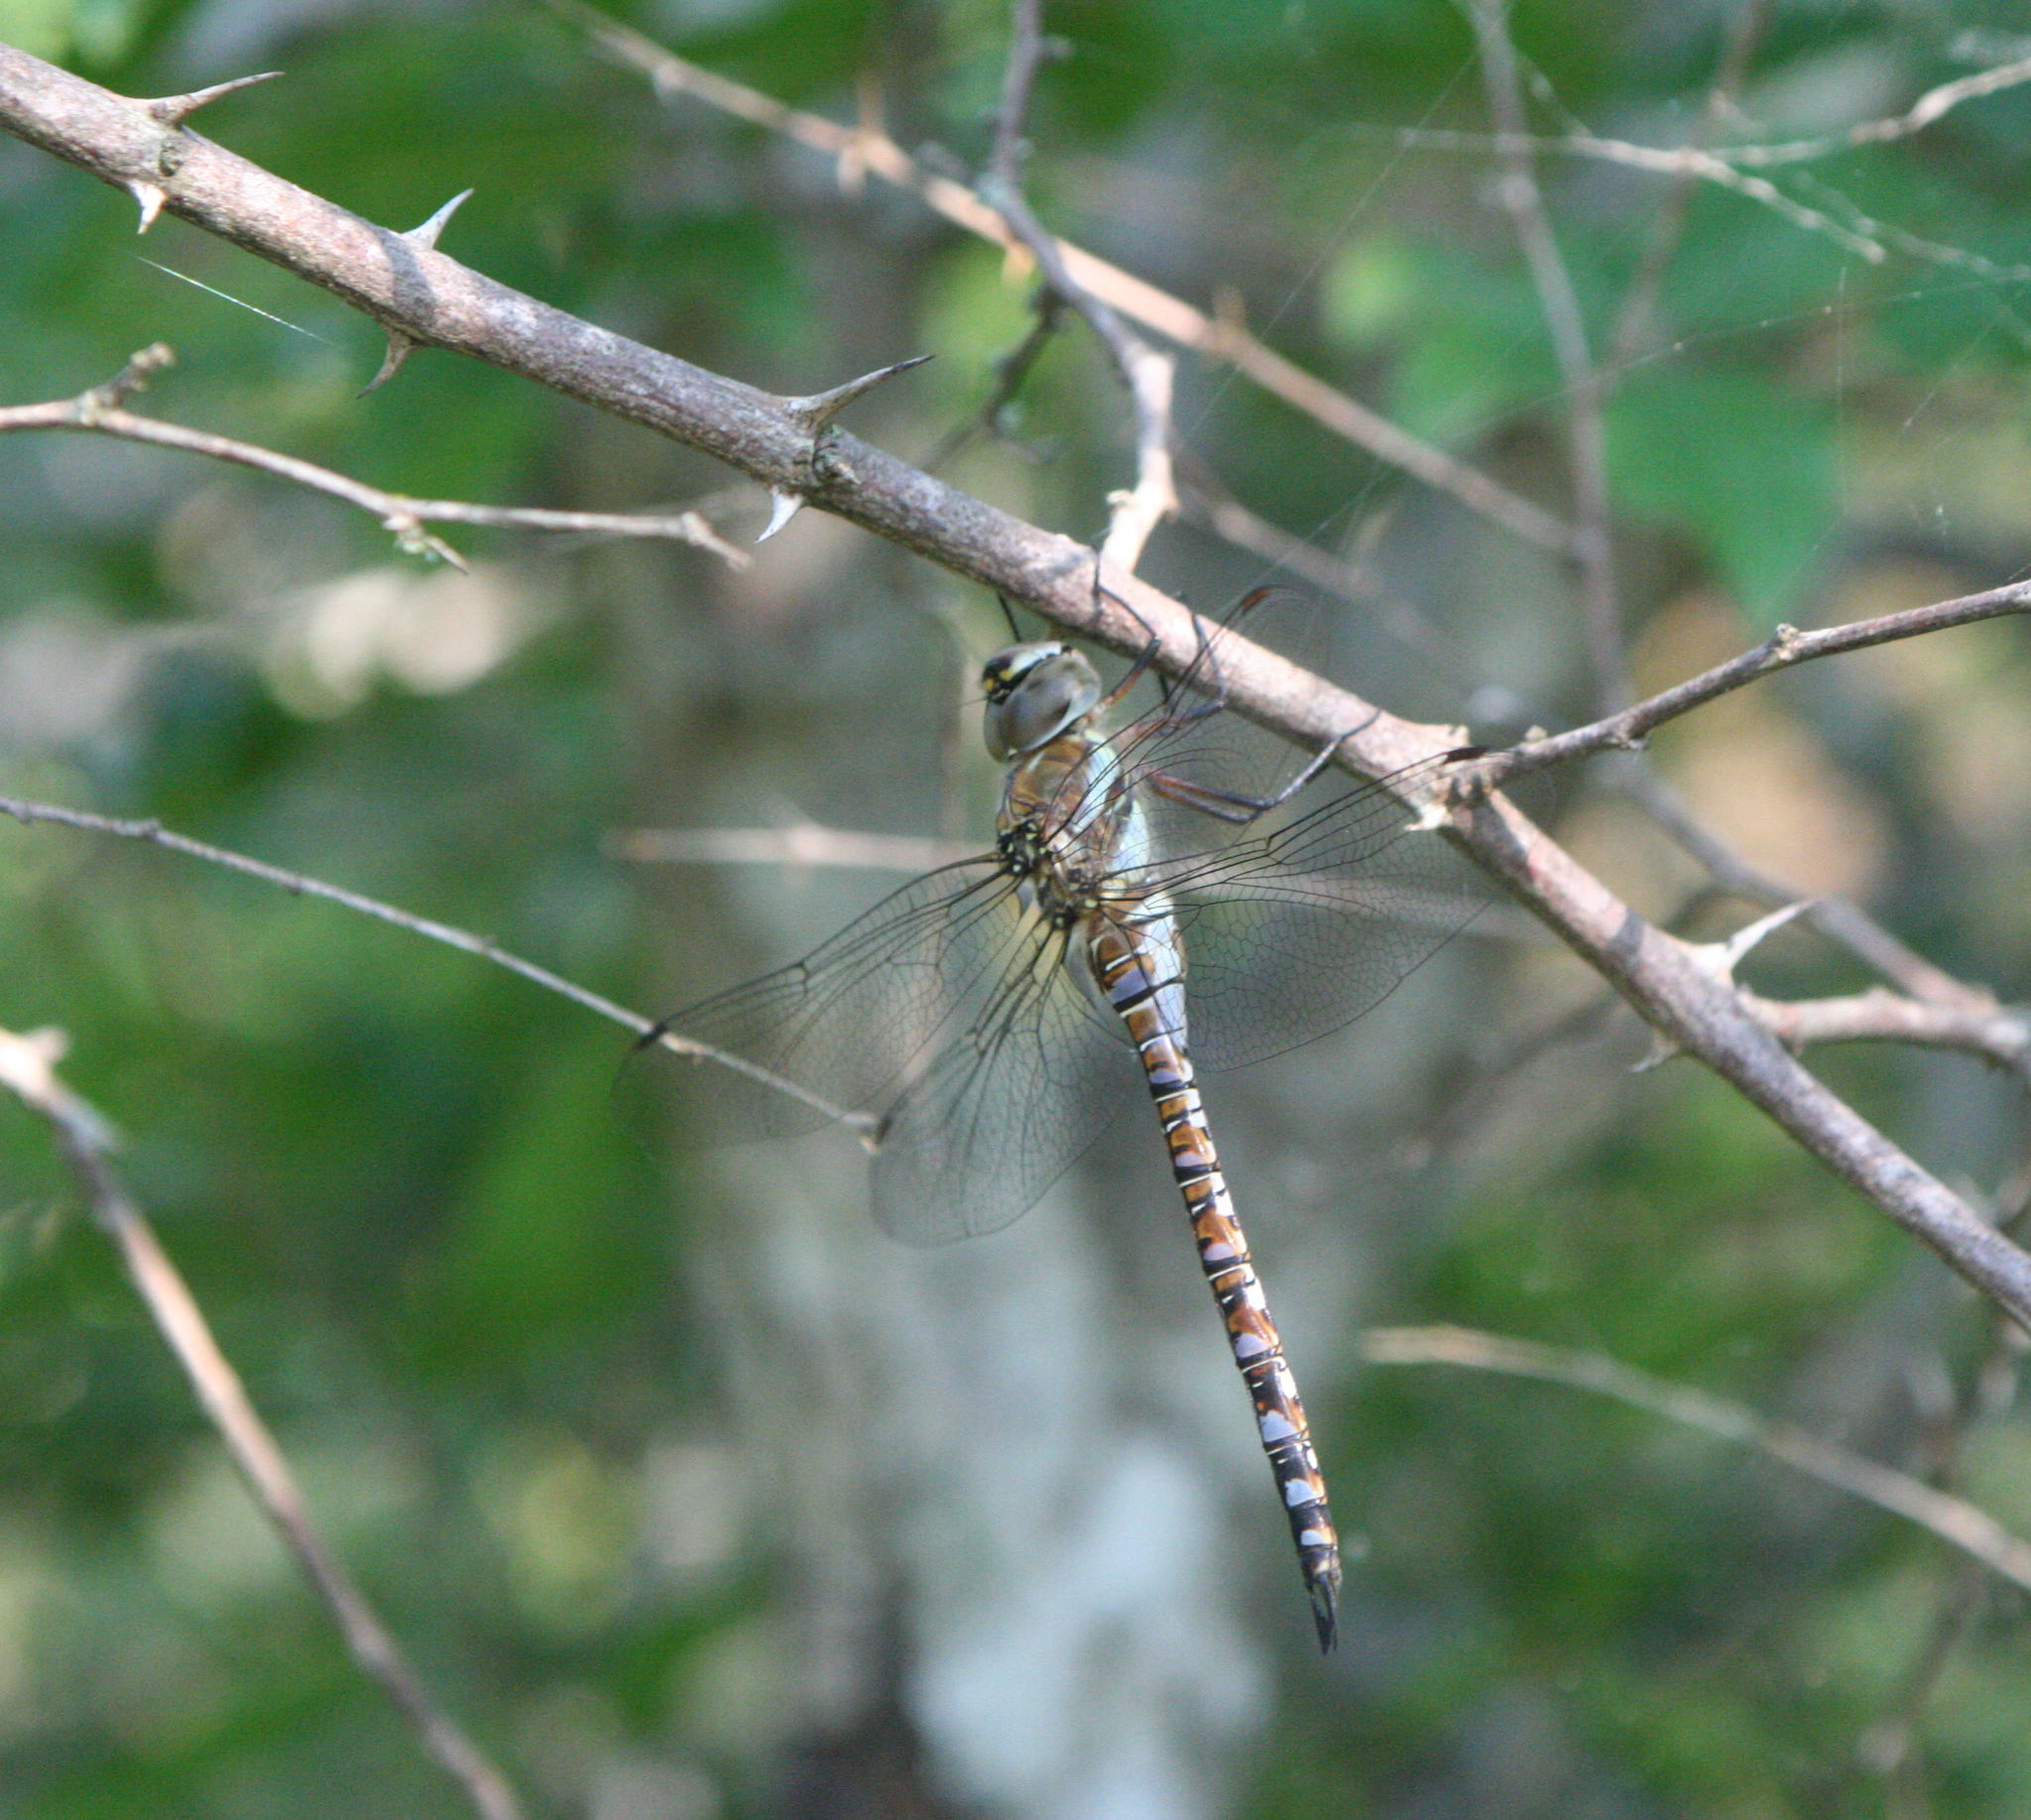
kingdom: Animalia
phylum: Arthropoda
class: Insecta
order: Odonata
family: Aeshnidae
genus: Aeshna
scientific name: Aeshna mixta
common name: Migrant hawker
